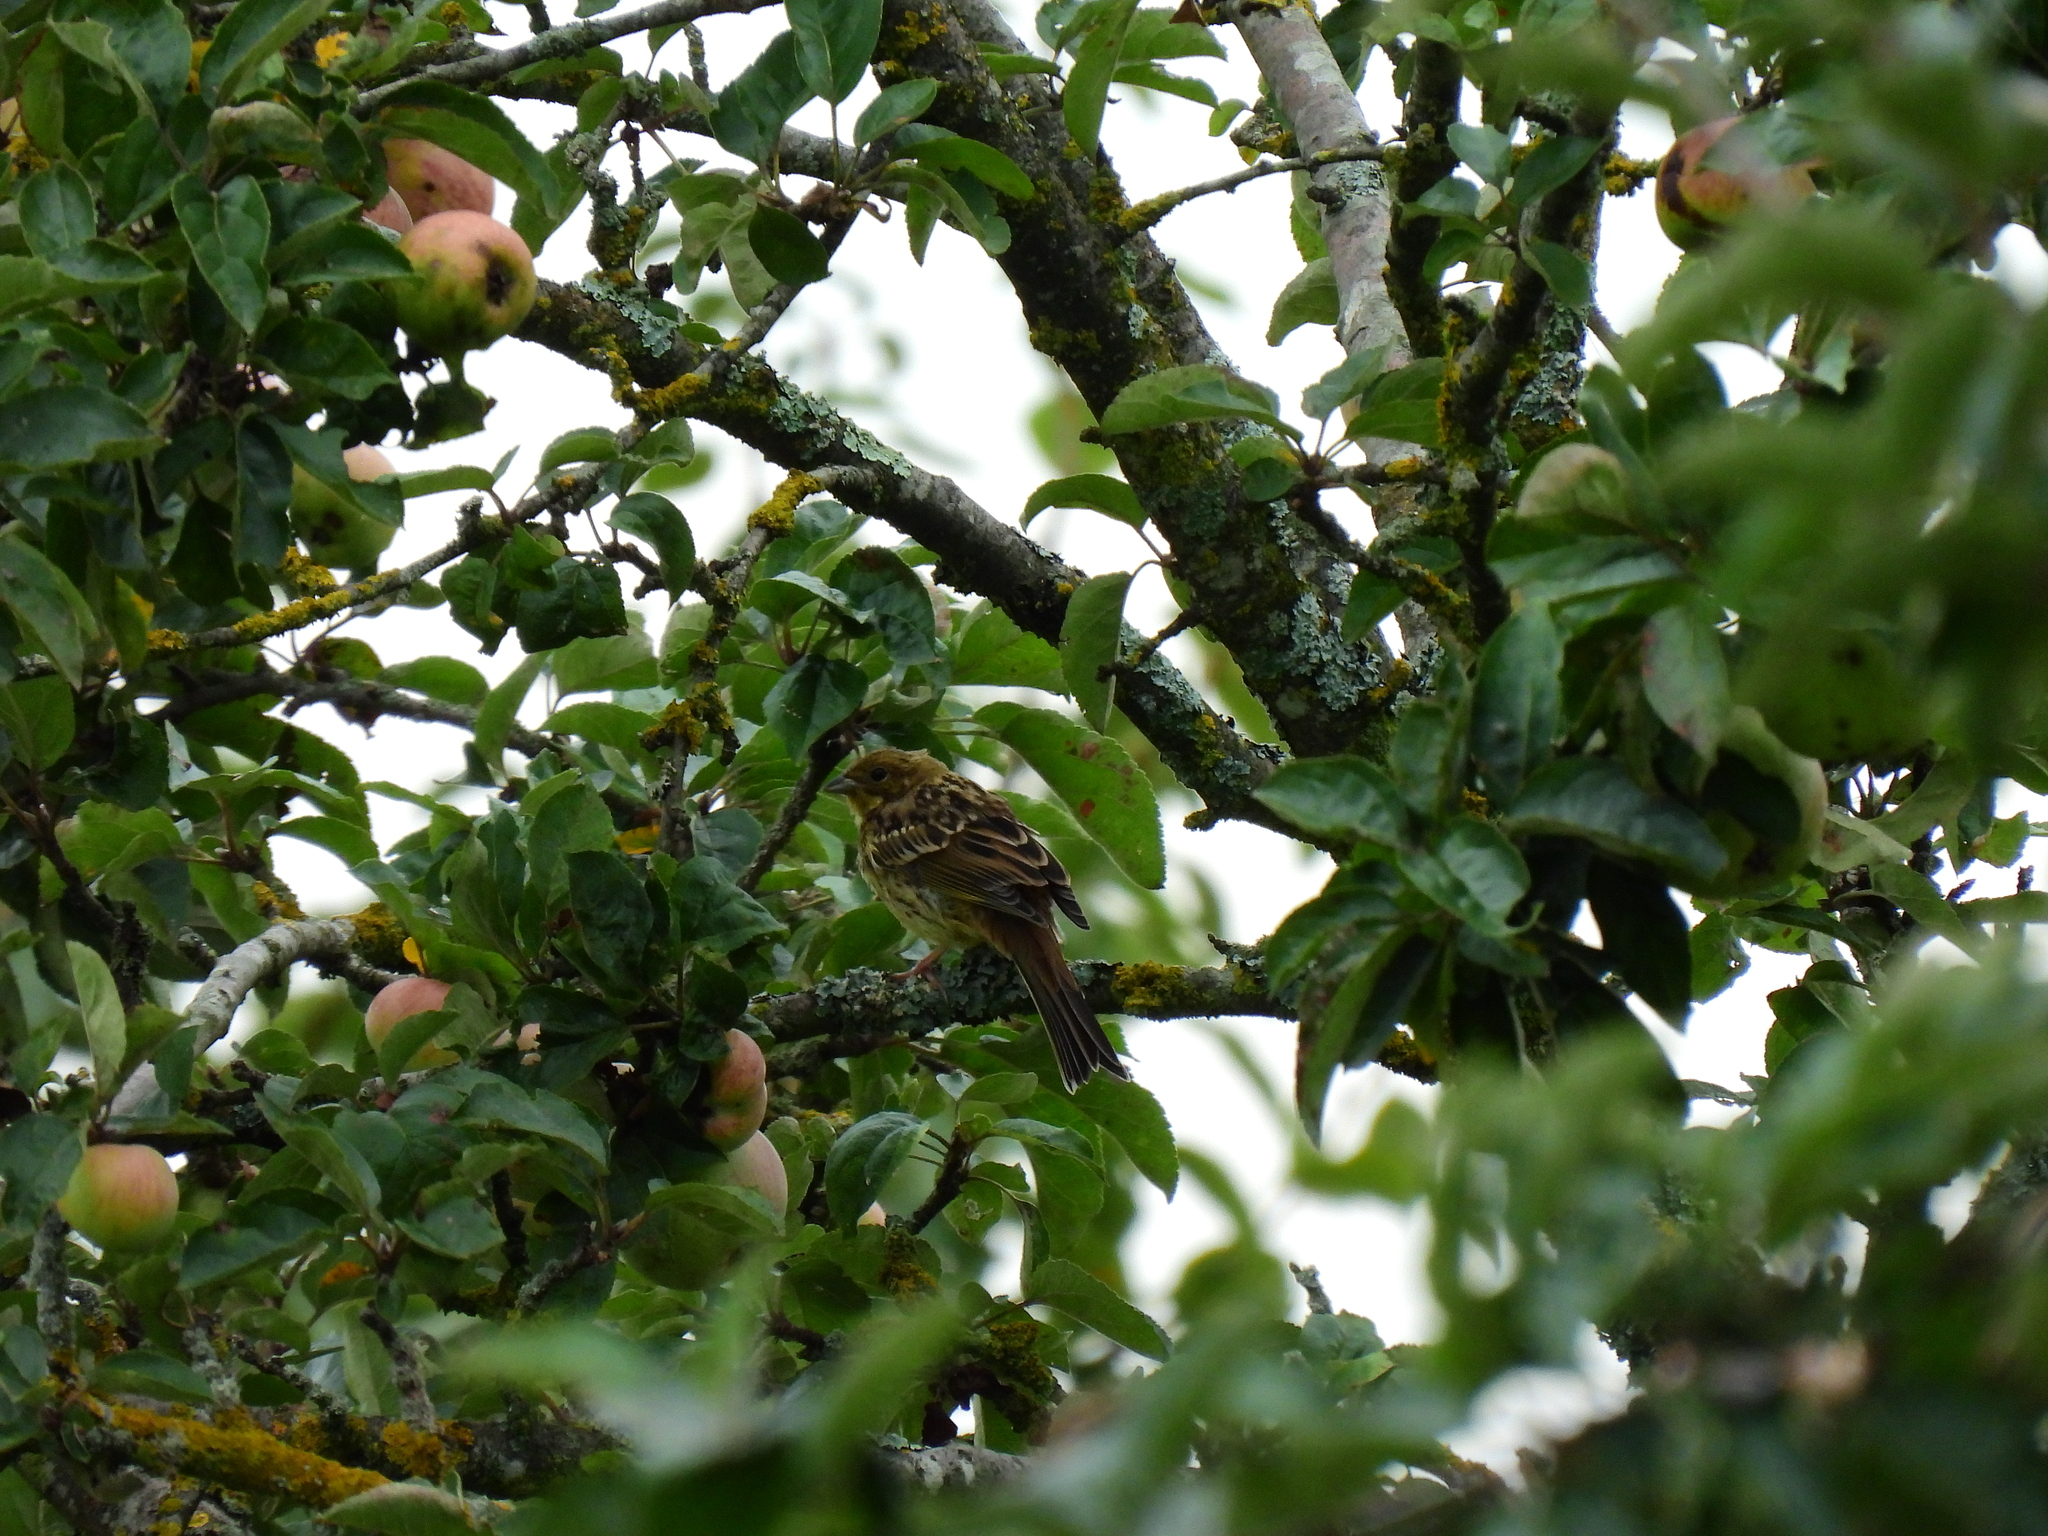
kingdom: Animalia
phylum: Chordata
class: Aves
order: Passeriformes
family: Emberizidae
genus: Emberiza
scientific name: Emberiza citrinella
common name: Yellowhammer
